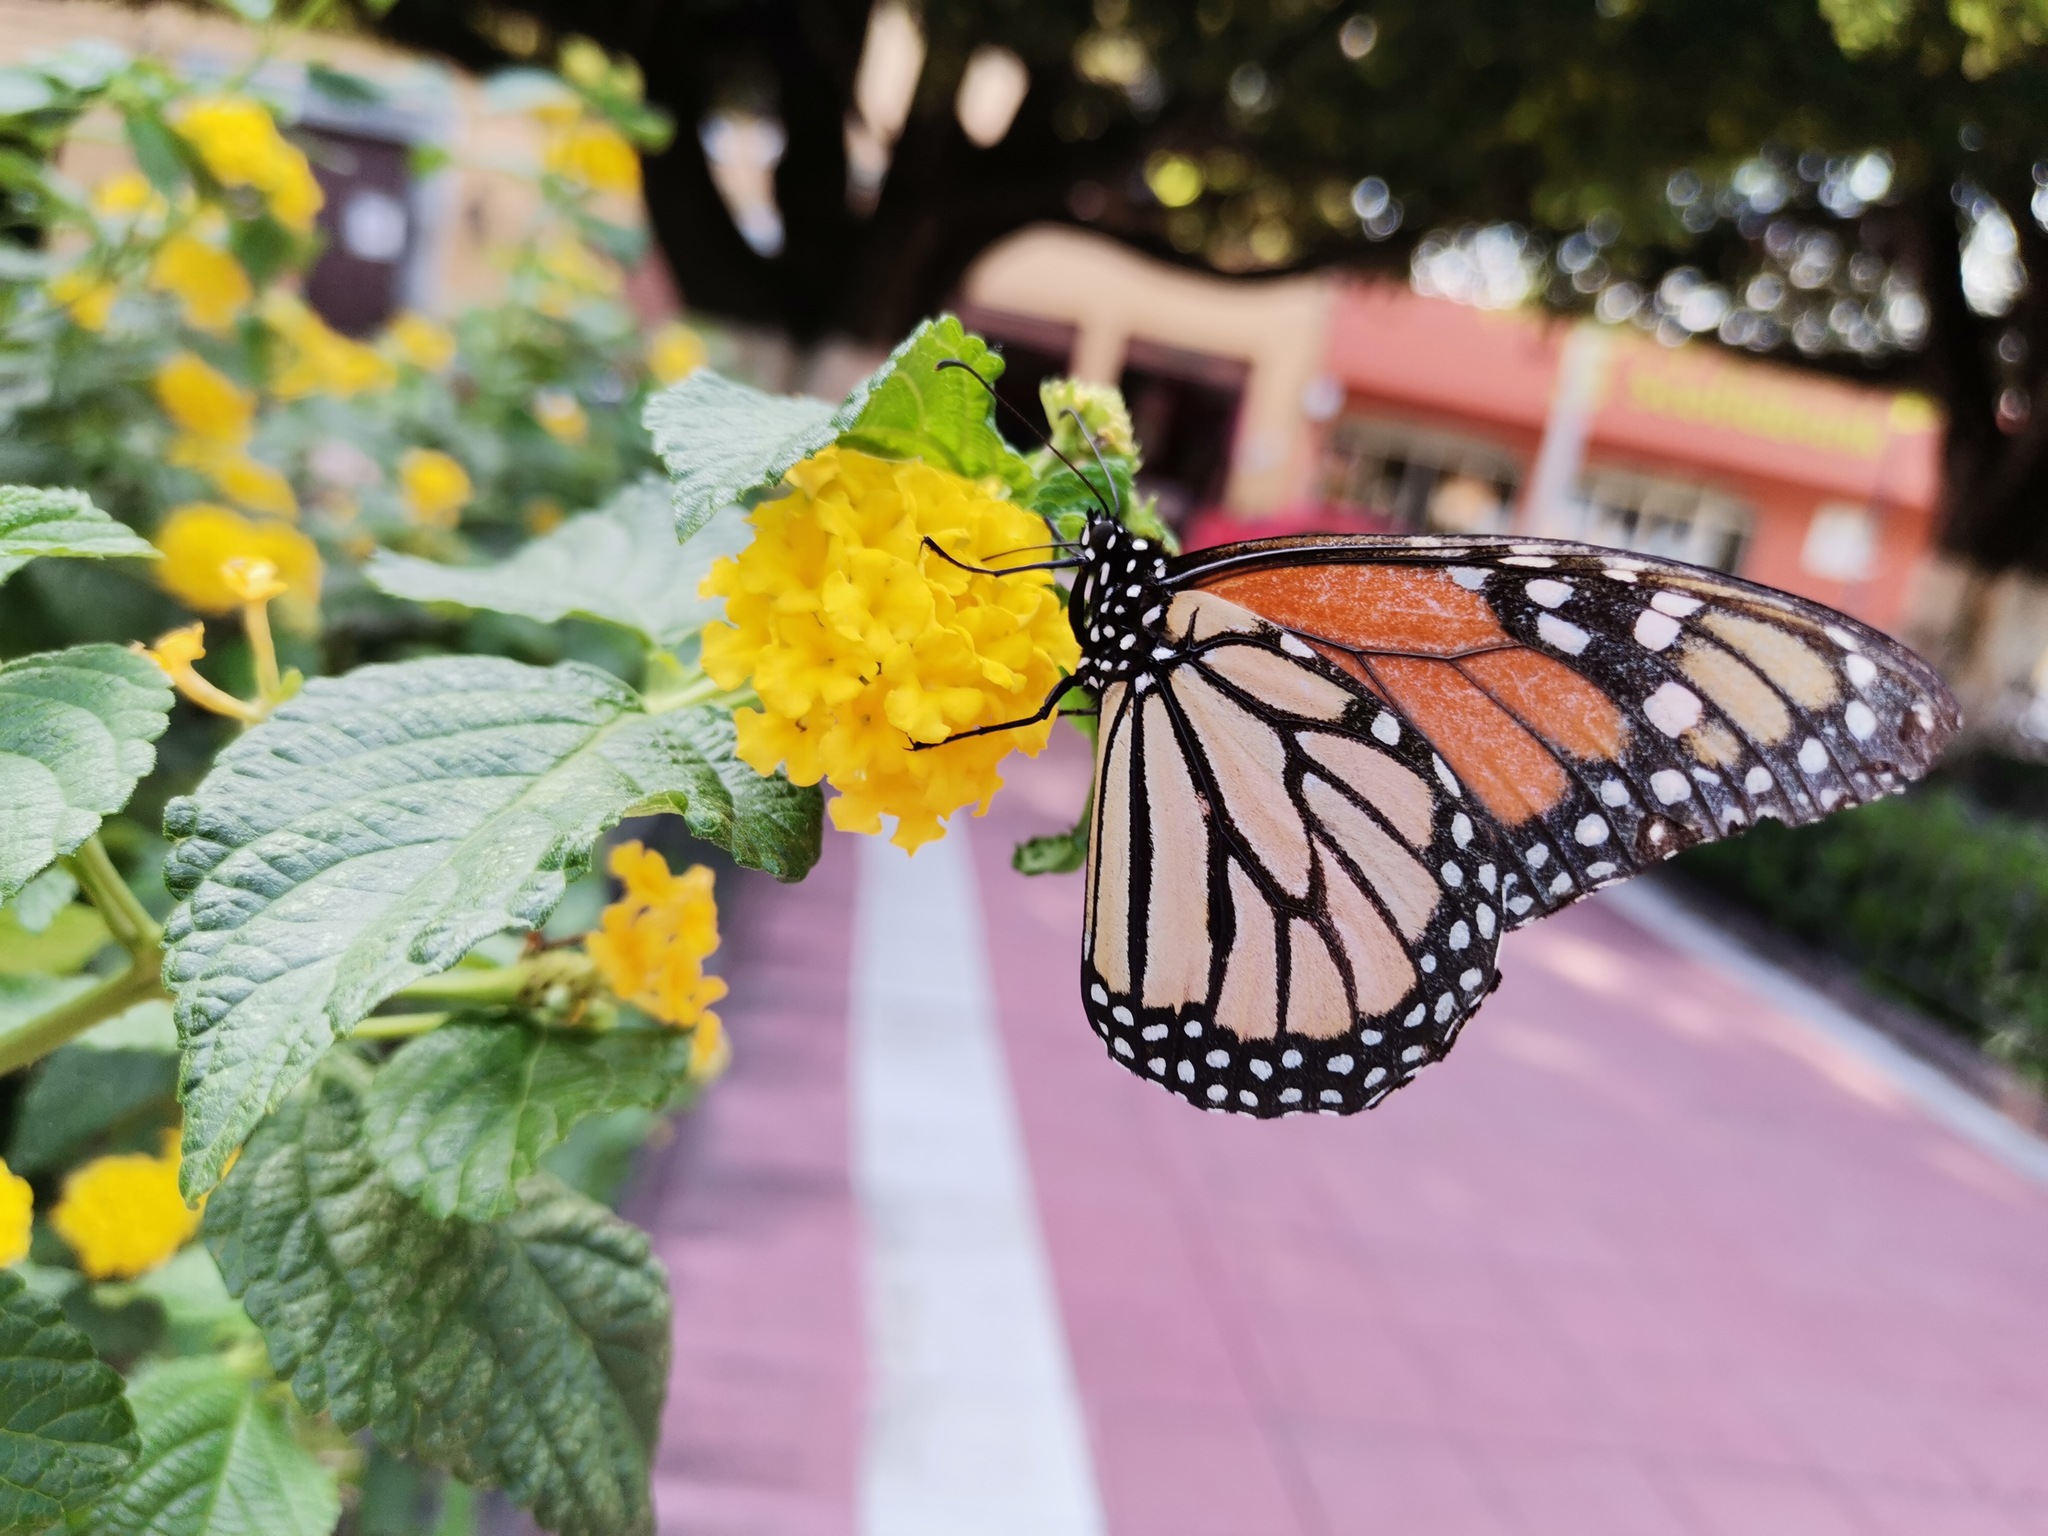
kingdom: Animalia
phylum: Arthropoda
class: Insecta
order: Lepidoptera
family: Nymphalidae
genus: Danaus
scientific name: Danaus plexippus
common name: Monarch
